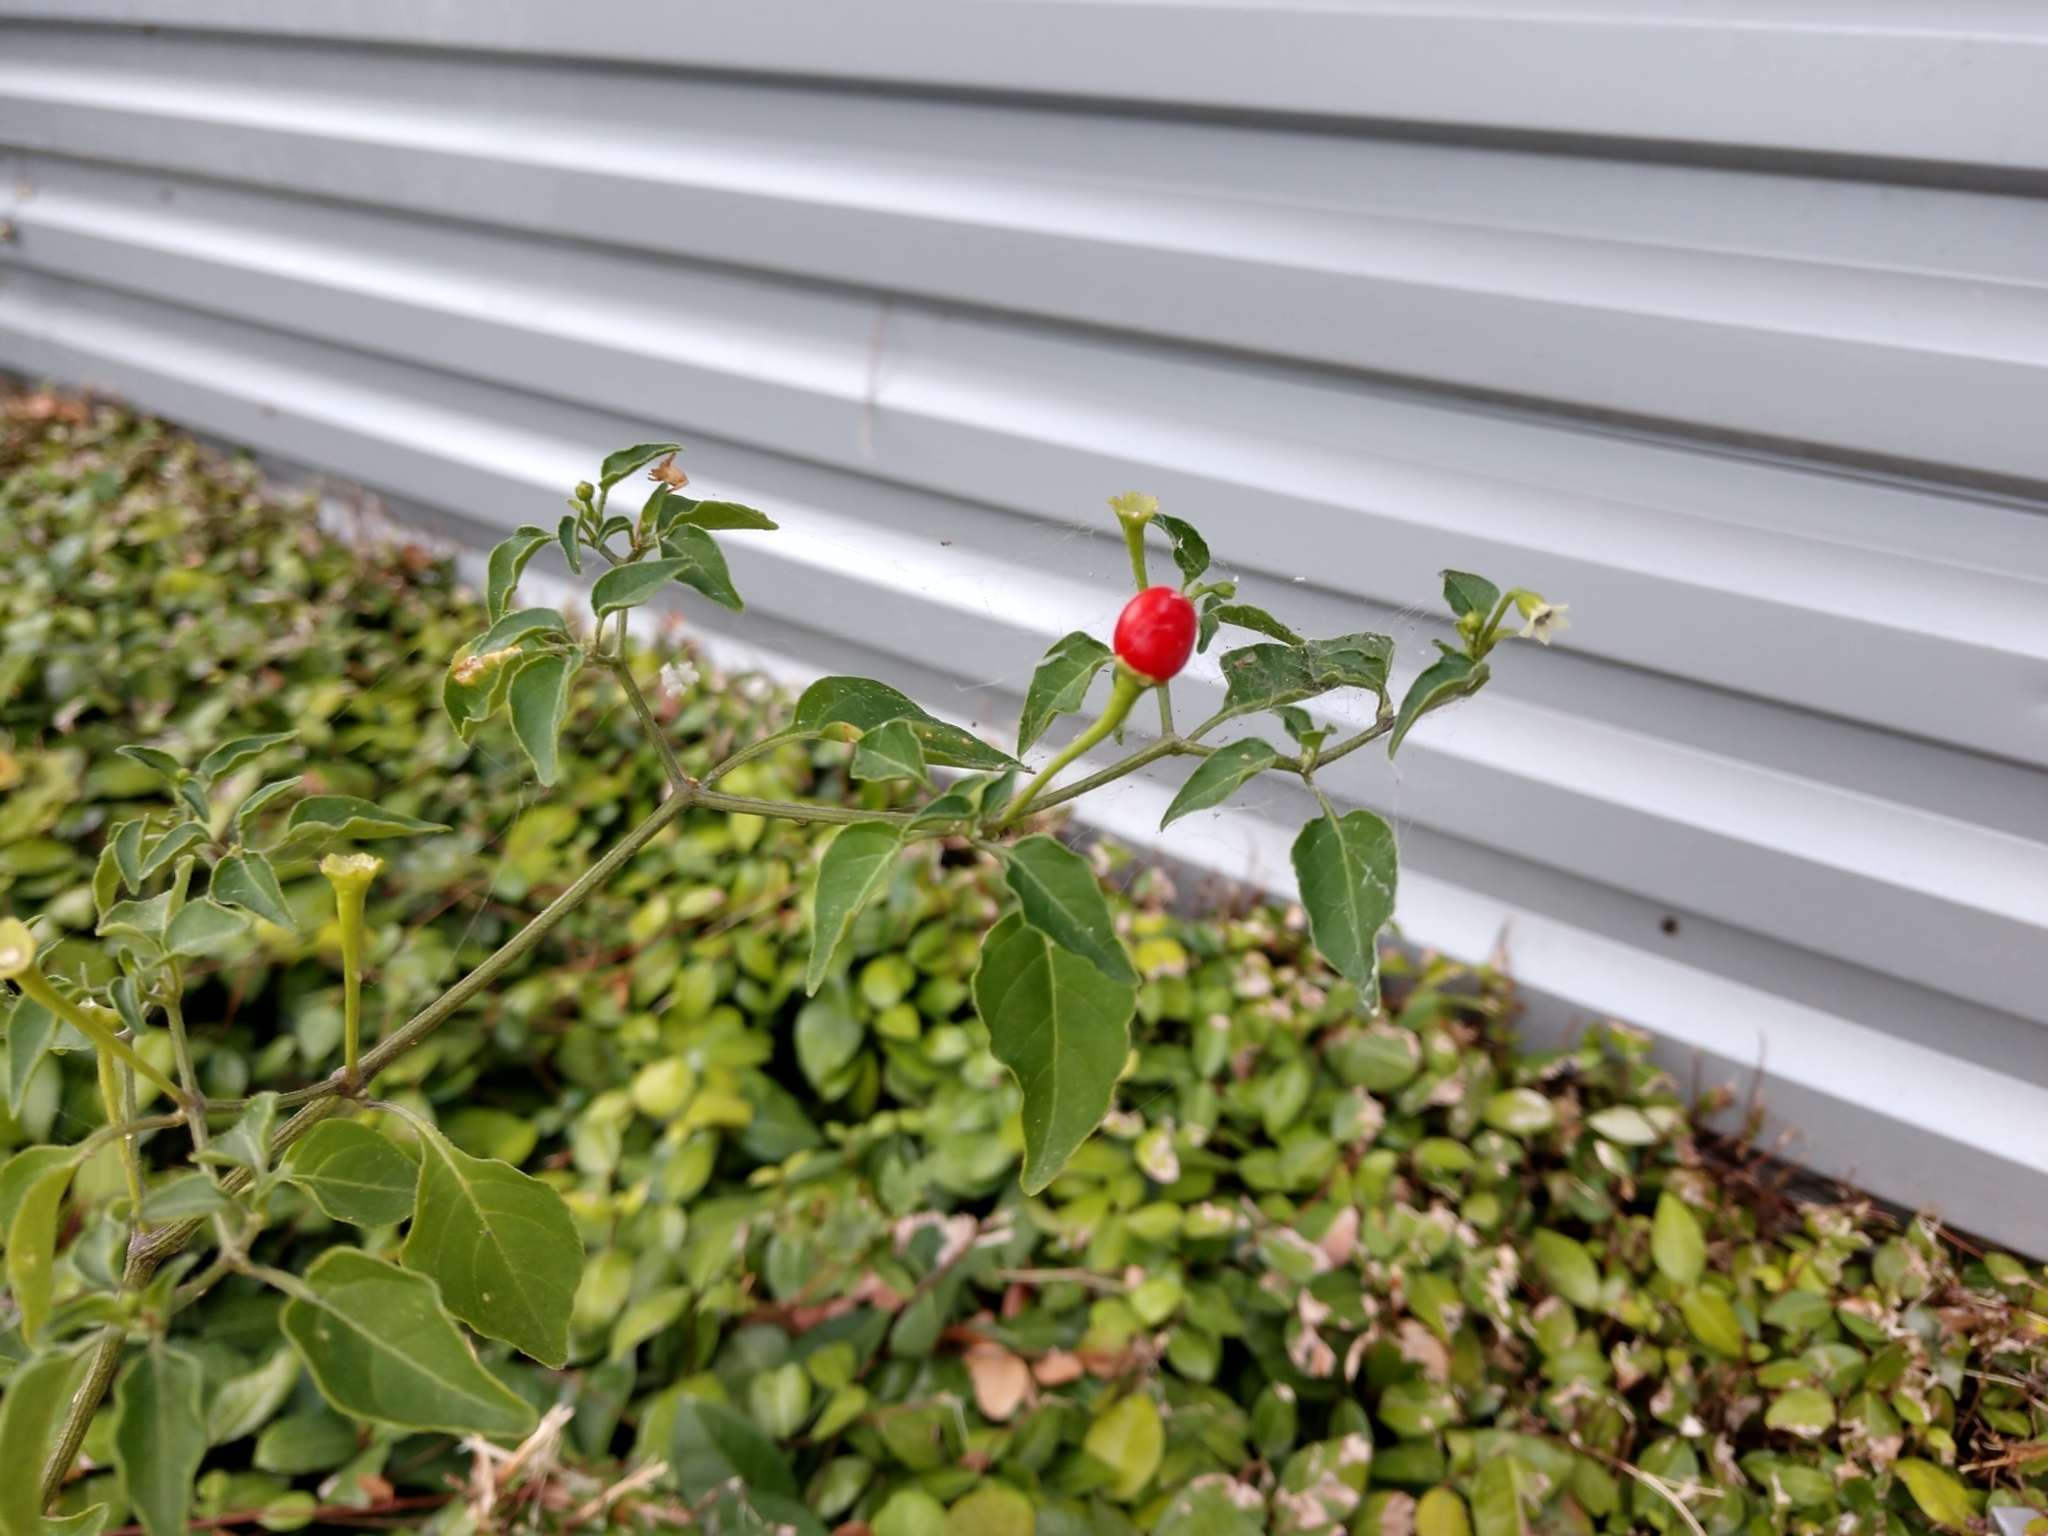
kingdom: Plantae
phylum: Tracheophyta
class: Magnoliopsida
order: Solanales
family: Solanaceae
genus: Capsicum
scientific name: Capsicum annuum
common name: Sweet pepper
